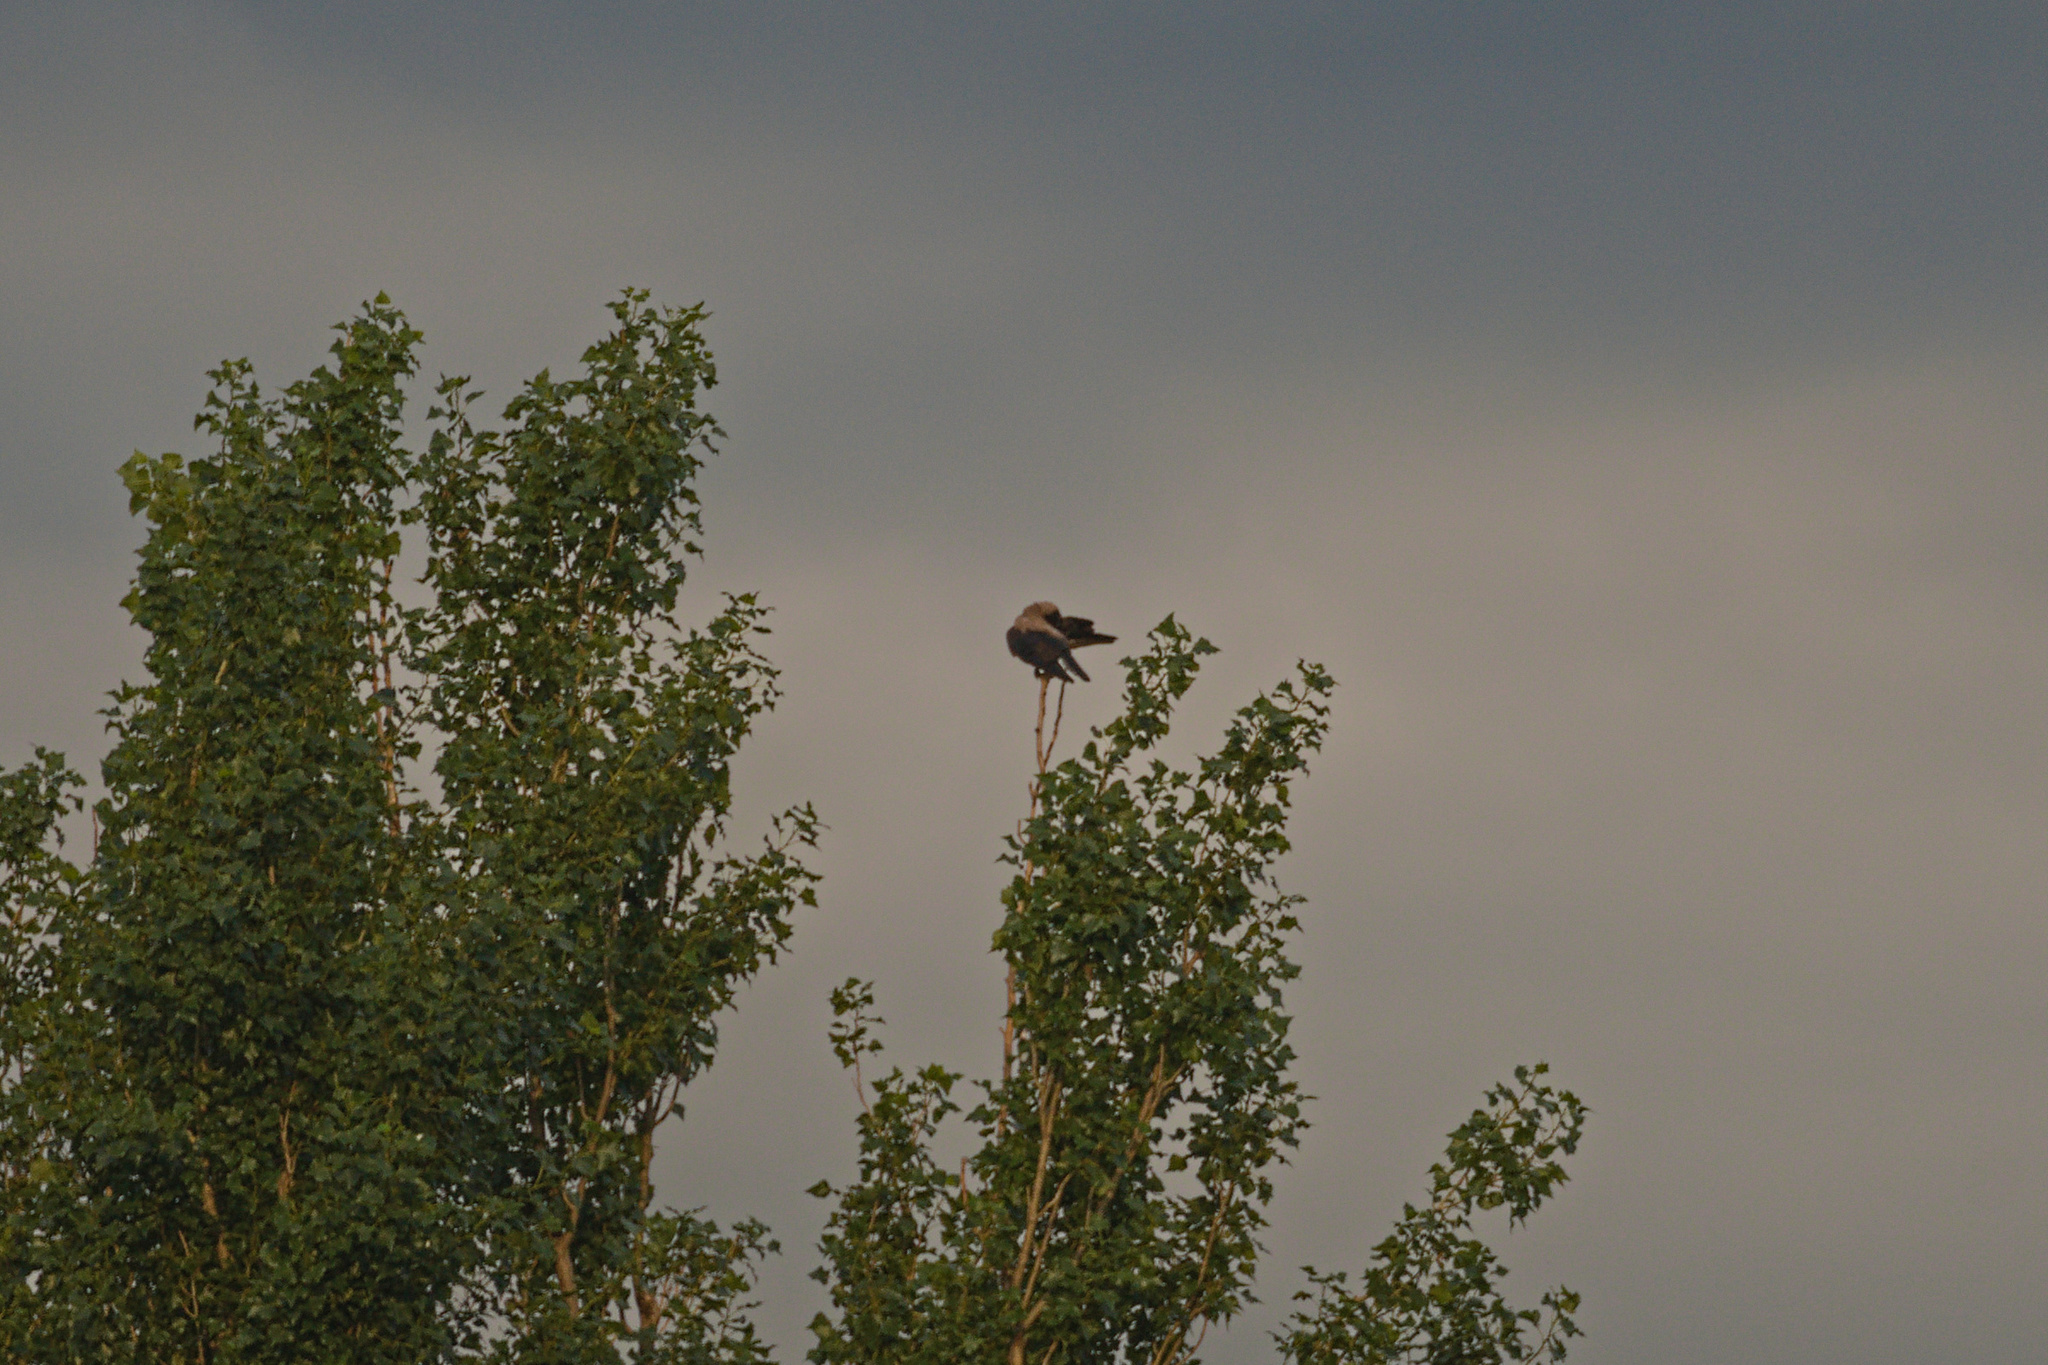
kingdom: Animalia
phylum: Chordata
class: Aves
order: Passeriformes
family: Corvidae
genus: Corvus
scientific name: Corvus cornix
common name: Hooded crow
